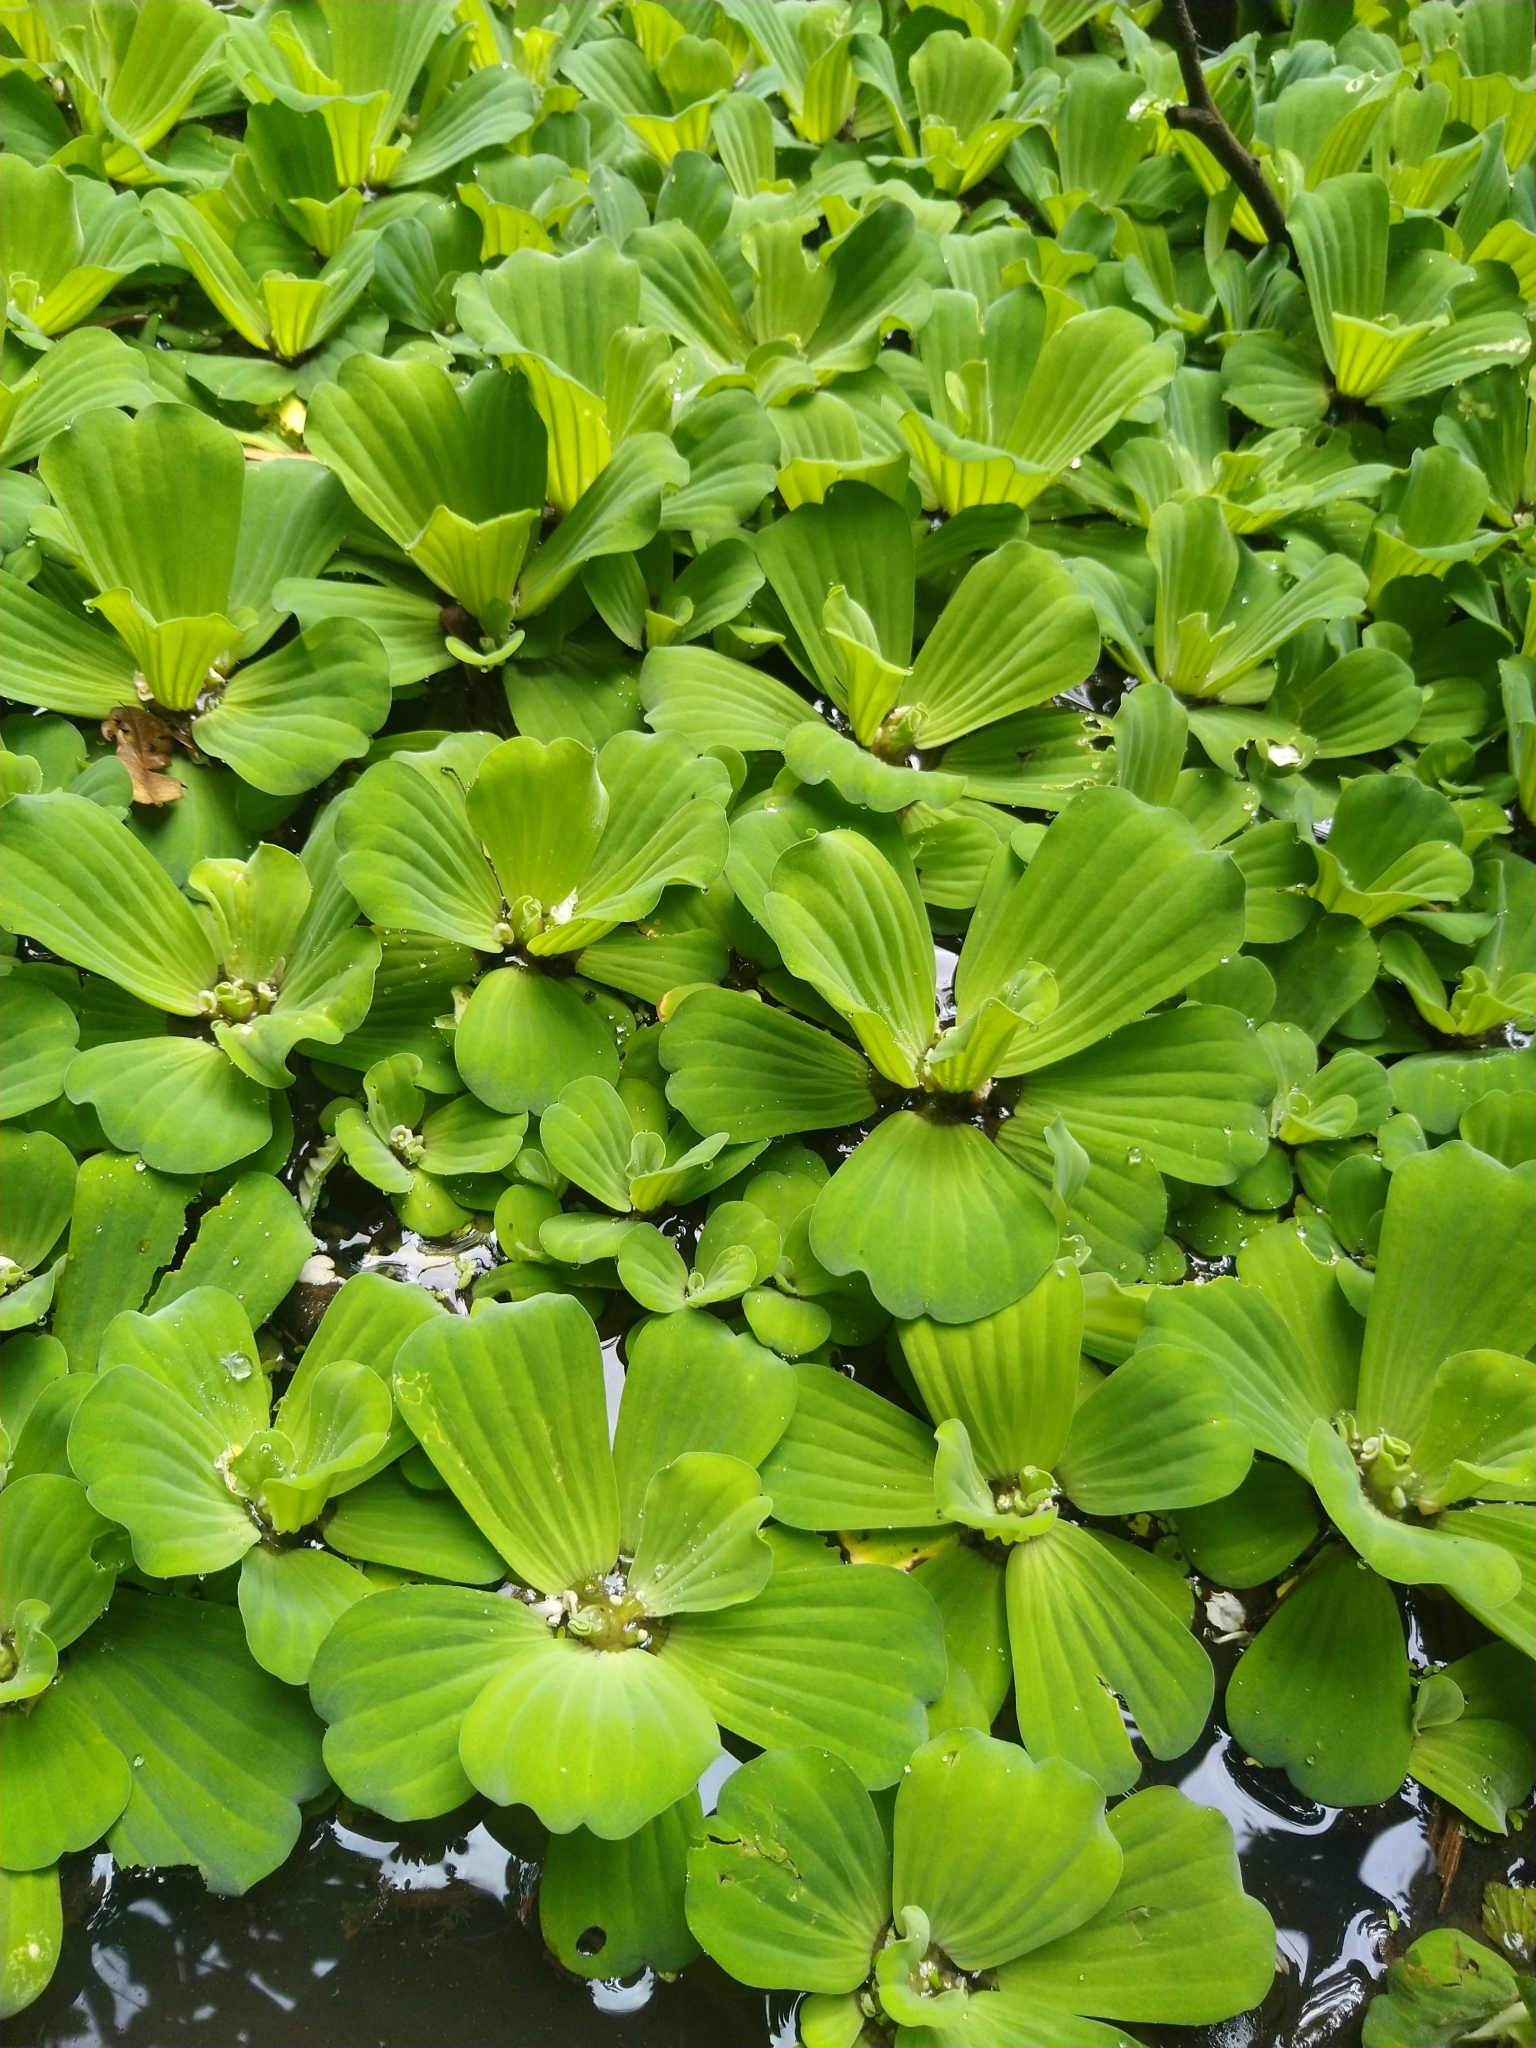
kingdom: Plantae
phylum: Tracheophyta
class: Liliopsida
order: Alismatales
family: Araceae
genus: Pistia
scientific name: Pistia stratiotes
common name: Water lettuce
